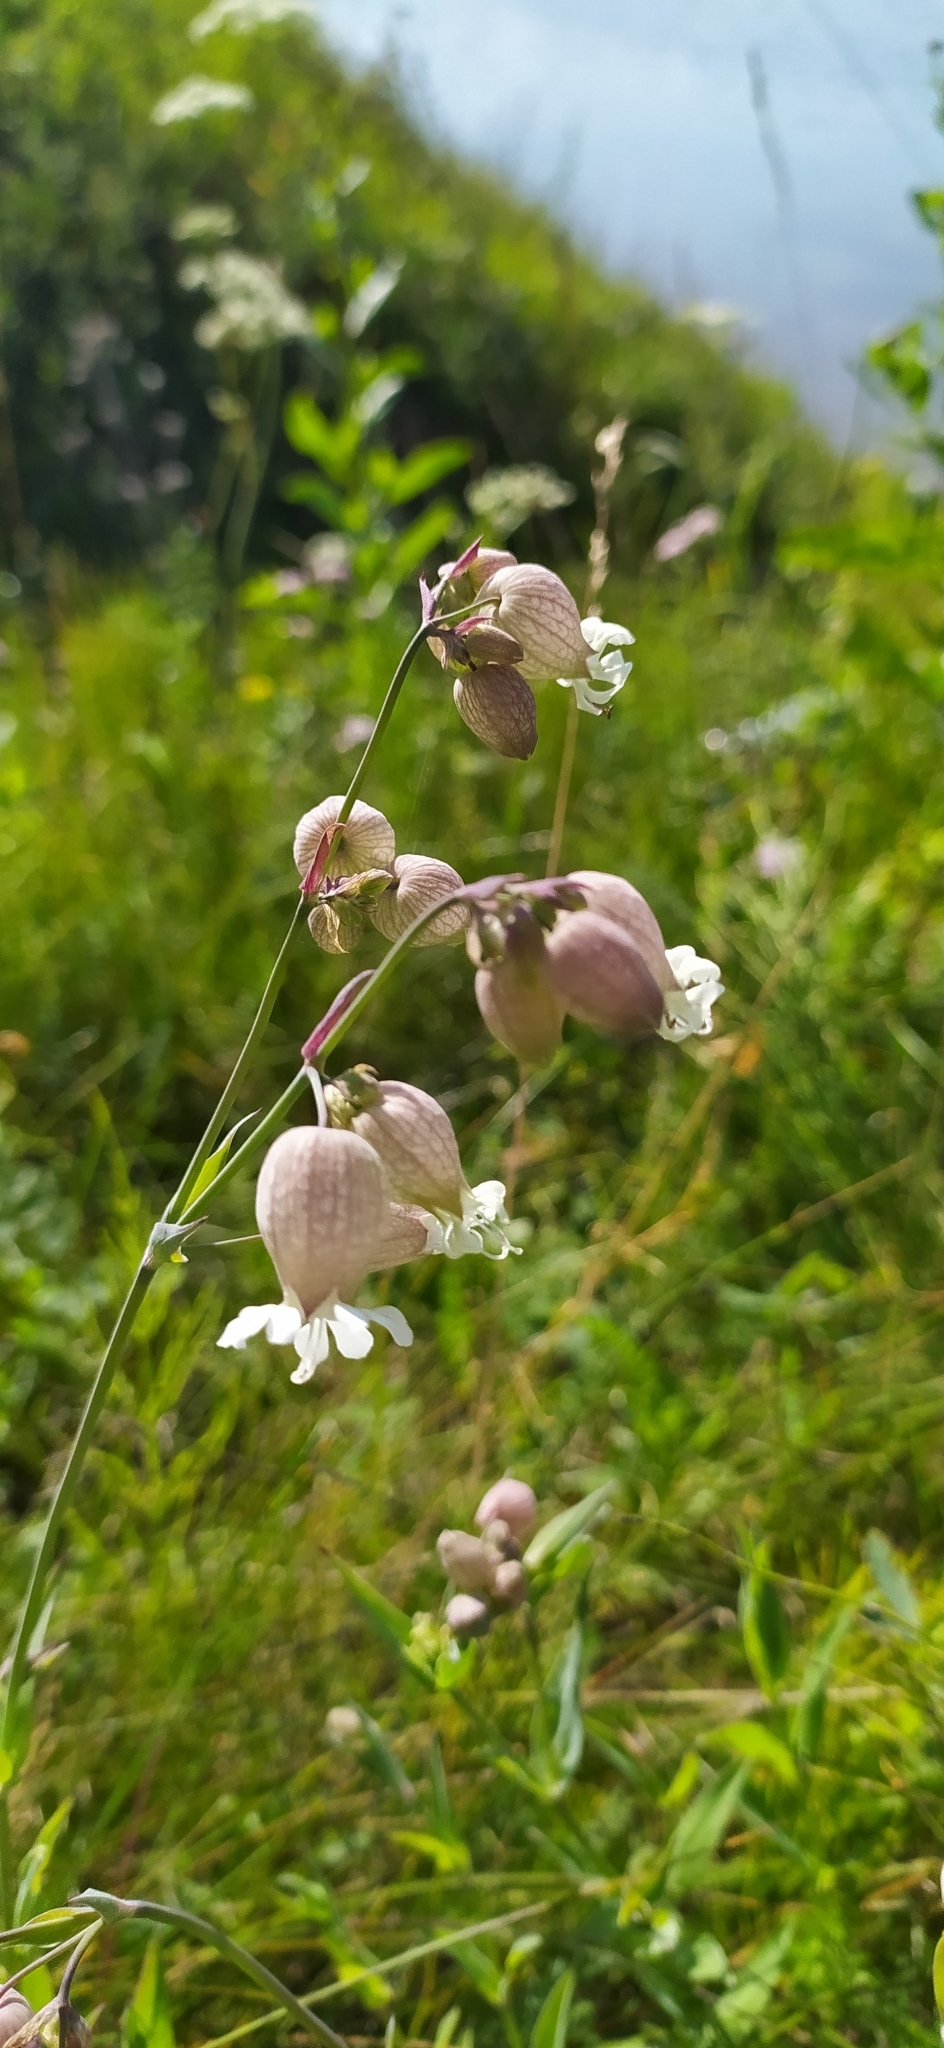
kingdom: Plantae
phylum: Tracheophyta
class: Magnoliopsida
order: Caryophyllales
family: Caryophyllaceae
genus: Silene
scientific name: Silene vulgaris
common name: Bladder campion
